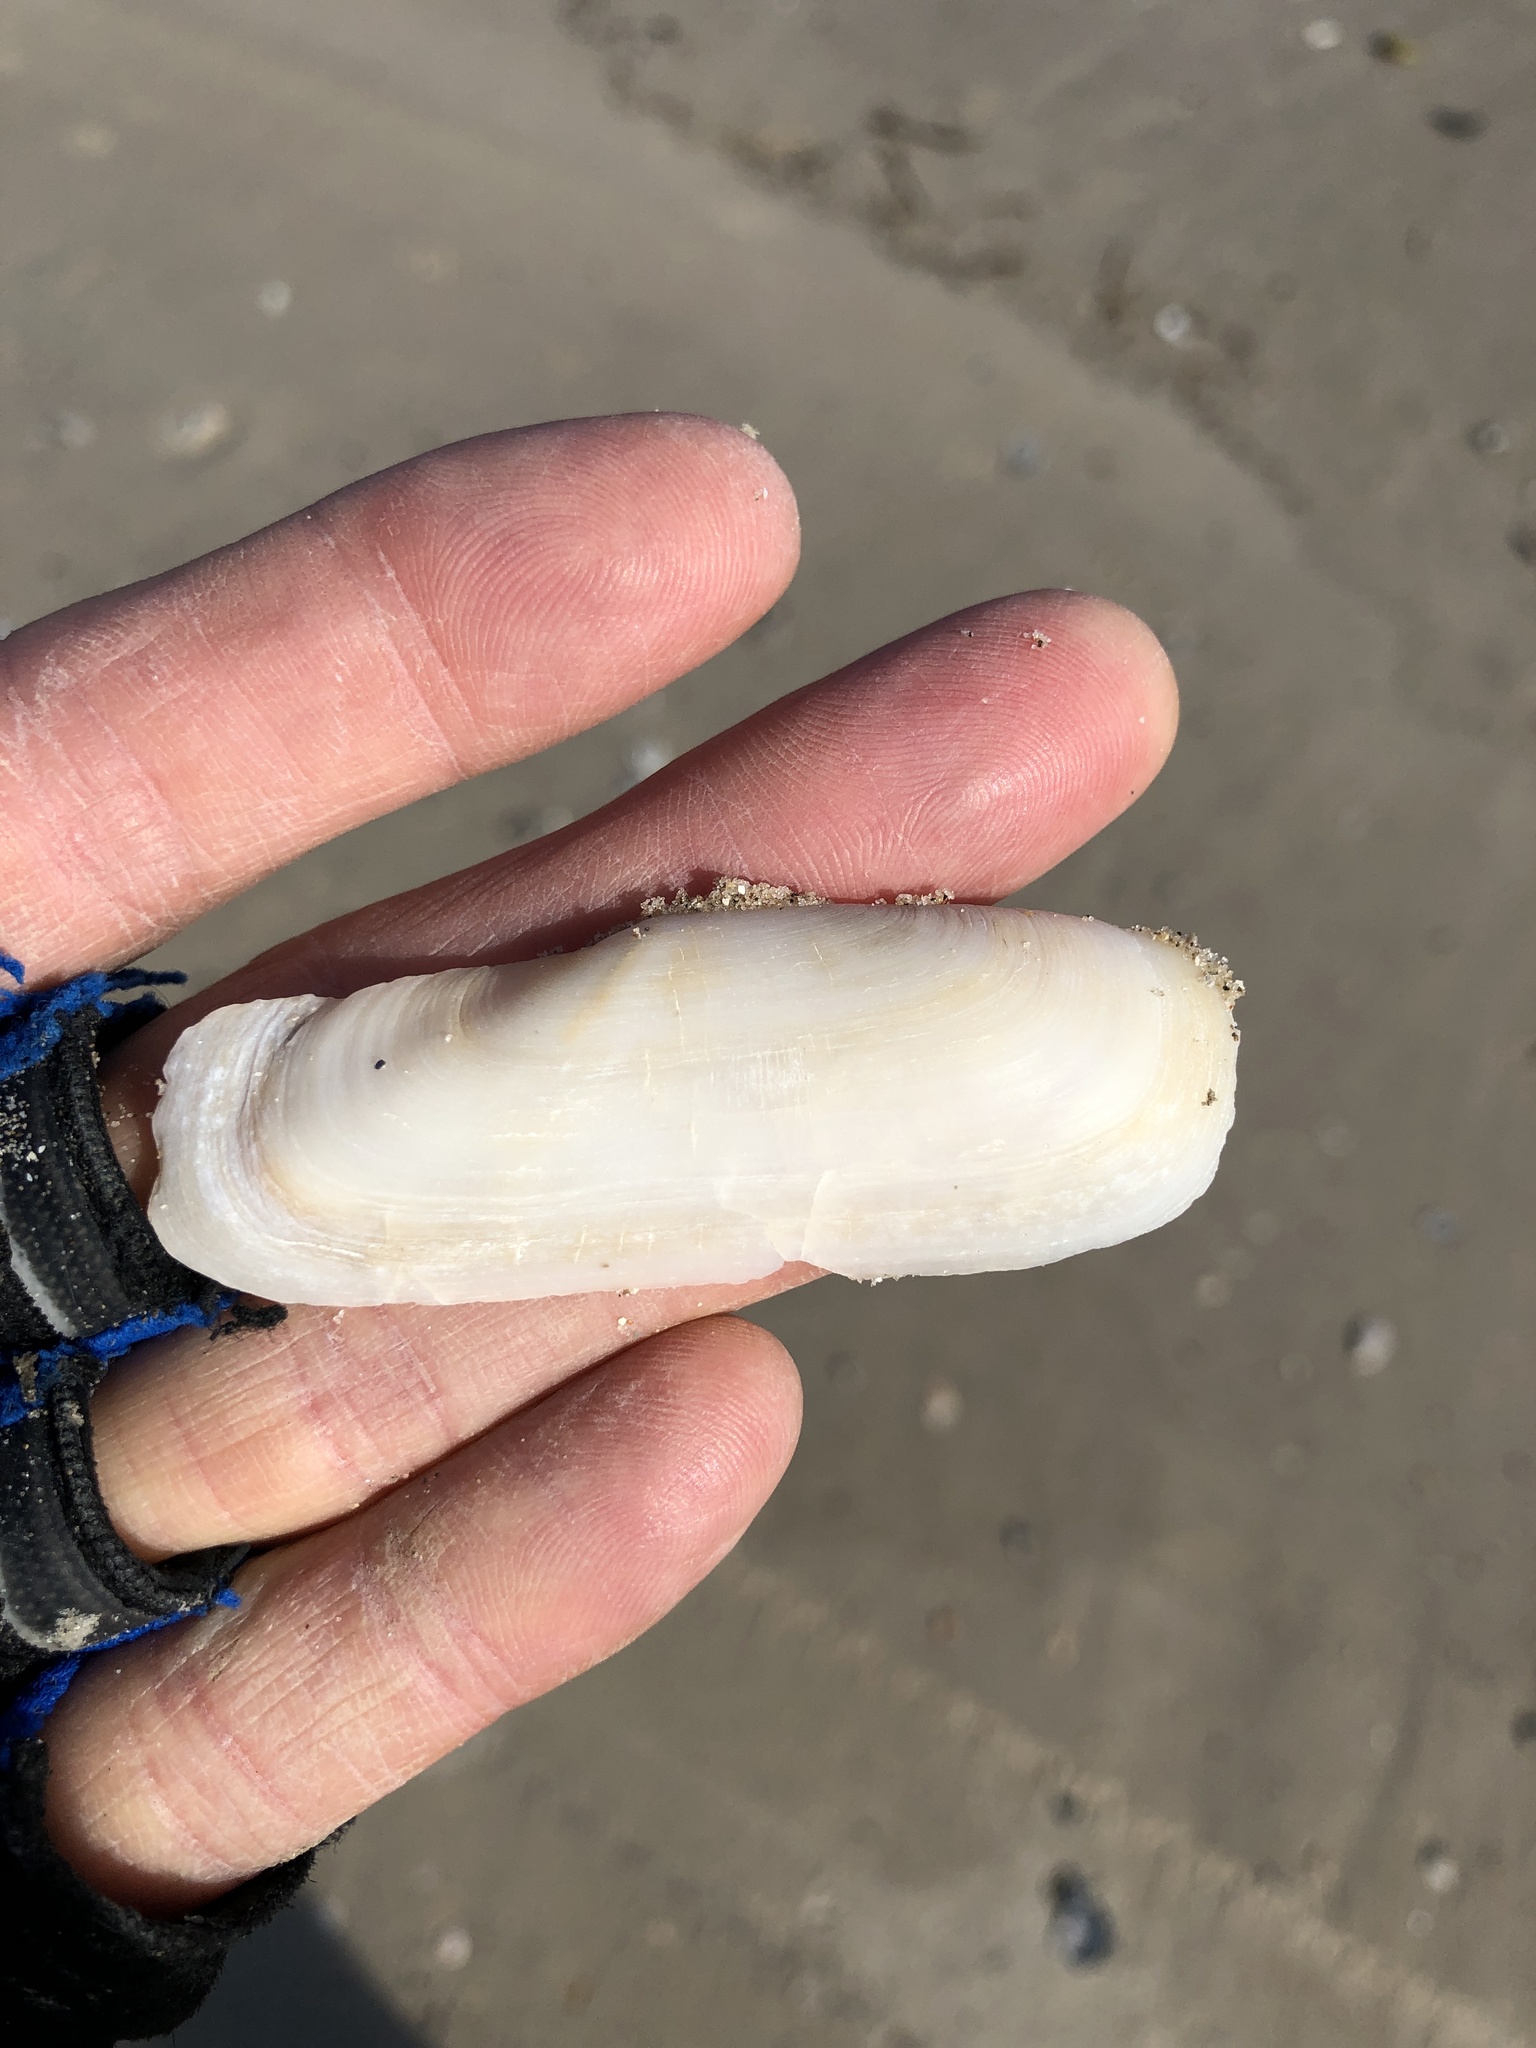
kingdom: Animalia
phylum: Mollusca
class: Bivalvia
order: Cardiida
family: Solecurtidae
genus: Tagelus
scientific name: Tagelus plebeius
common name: Stout tagelus
